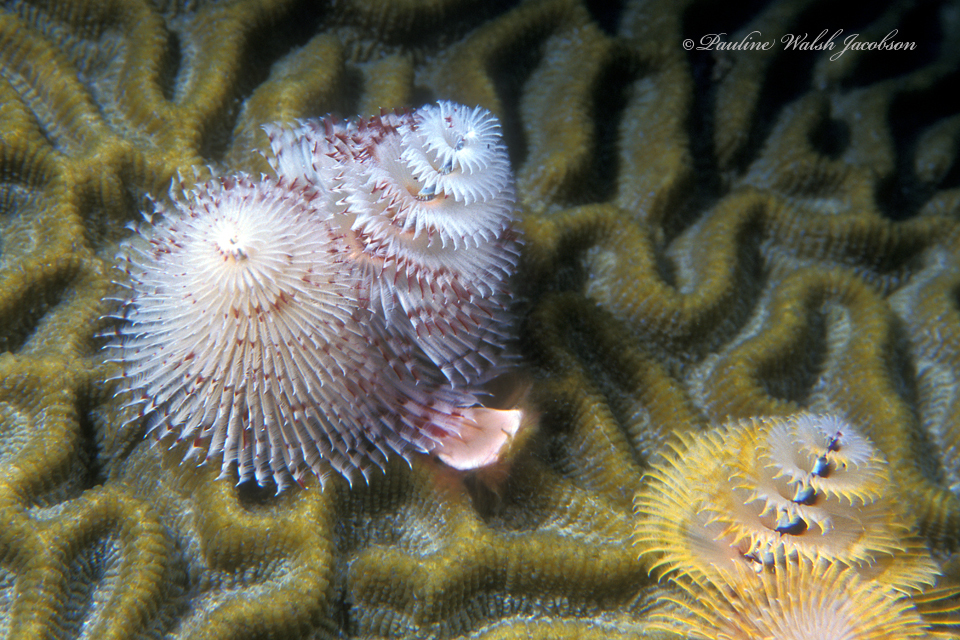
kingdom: Animalia
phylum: Annelida
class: Polychaeta
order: Sabellida
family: Serpulidae
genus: Spirobranchus
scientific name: Spirobranchus giganteus
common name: Christmas tree worm
